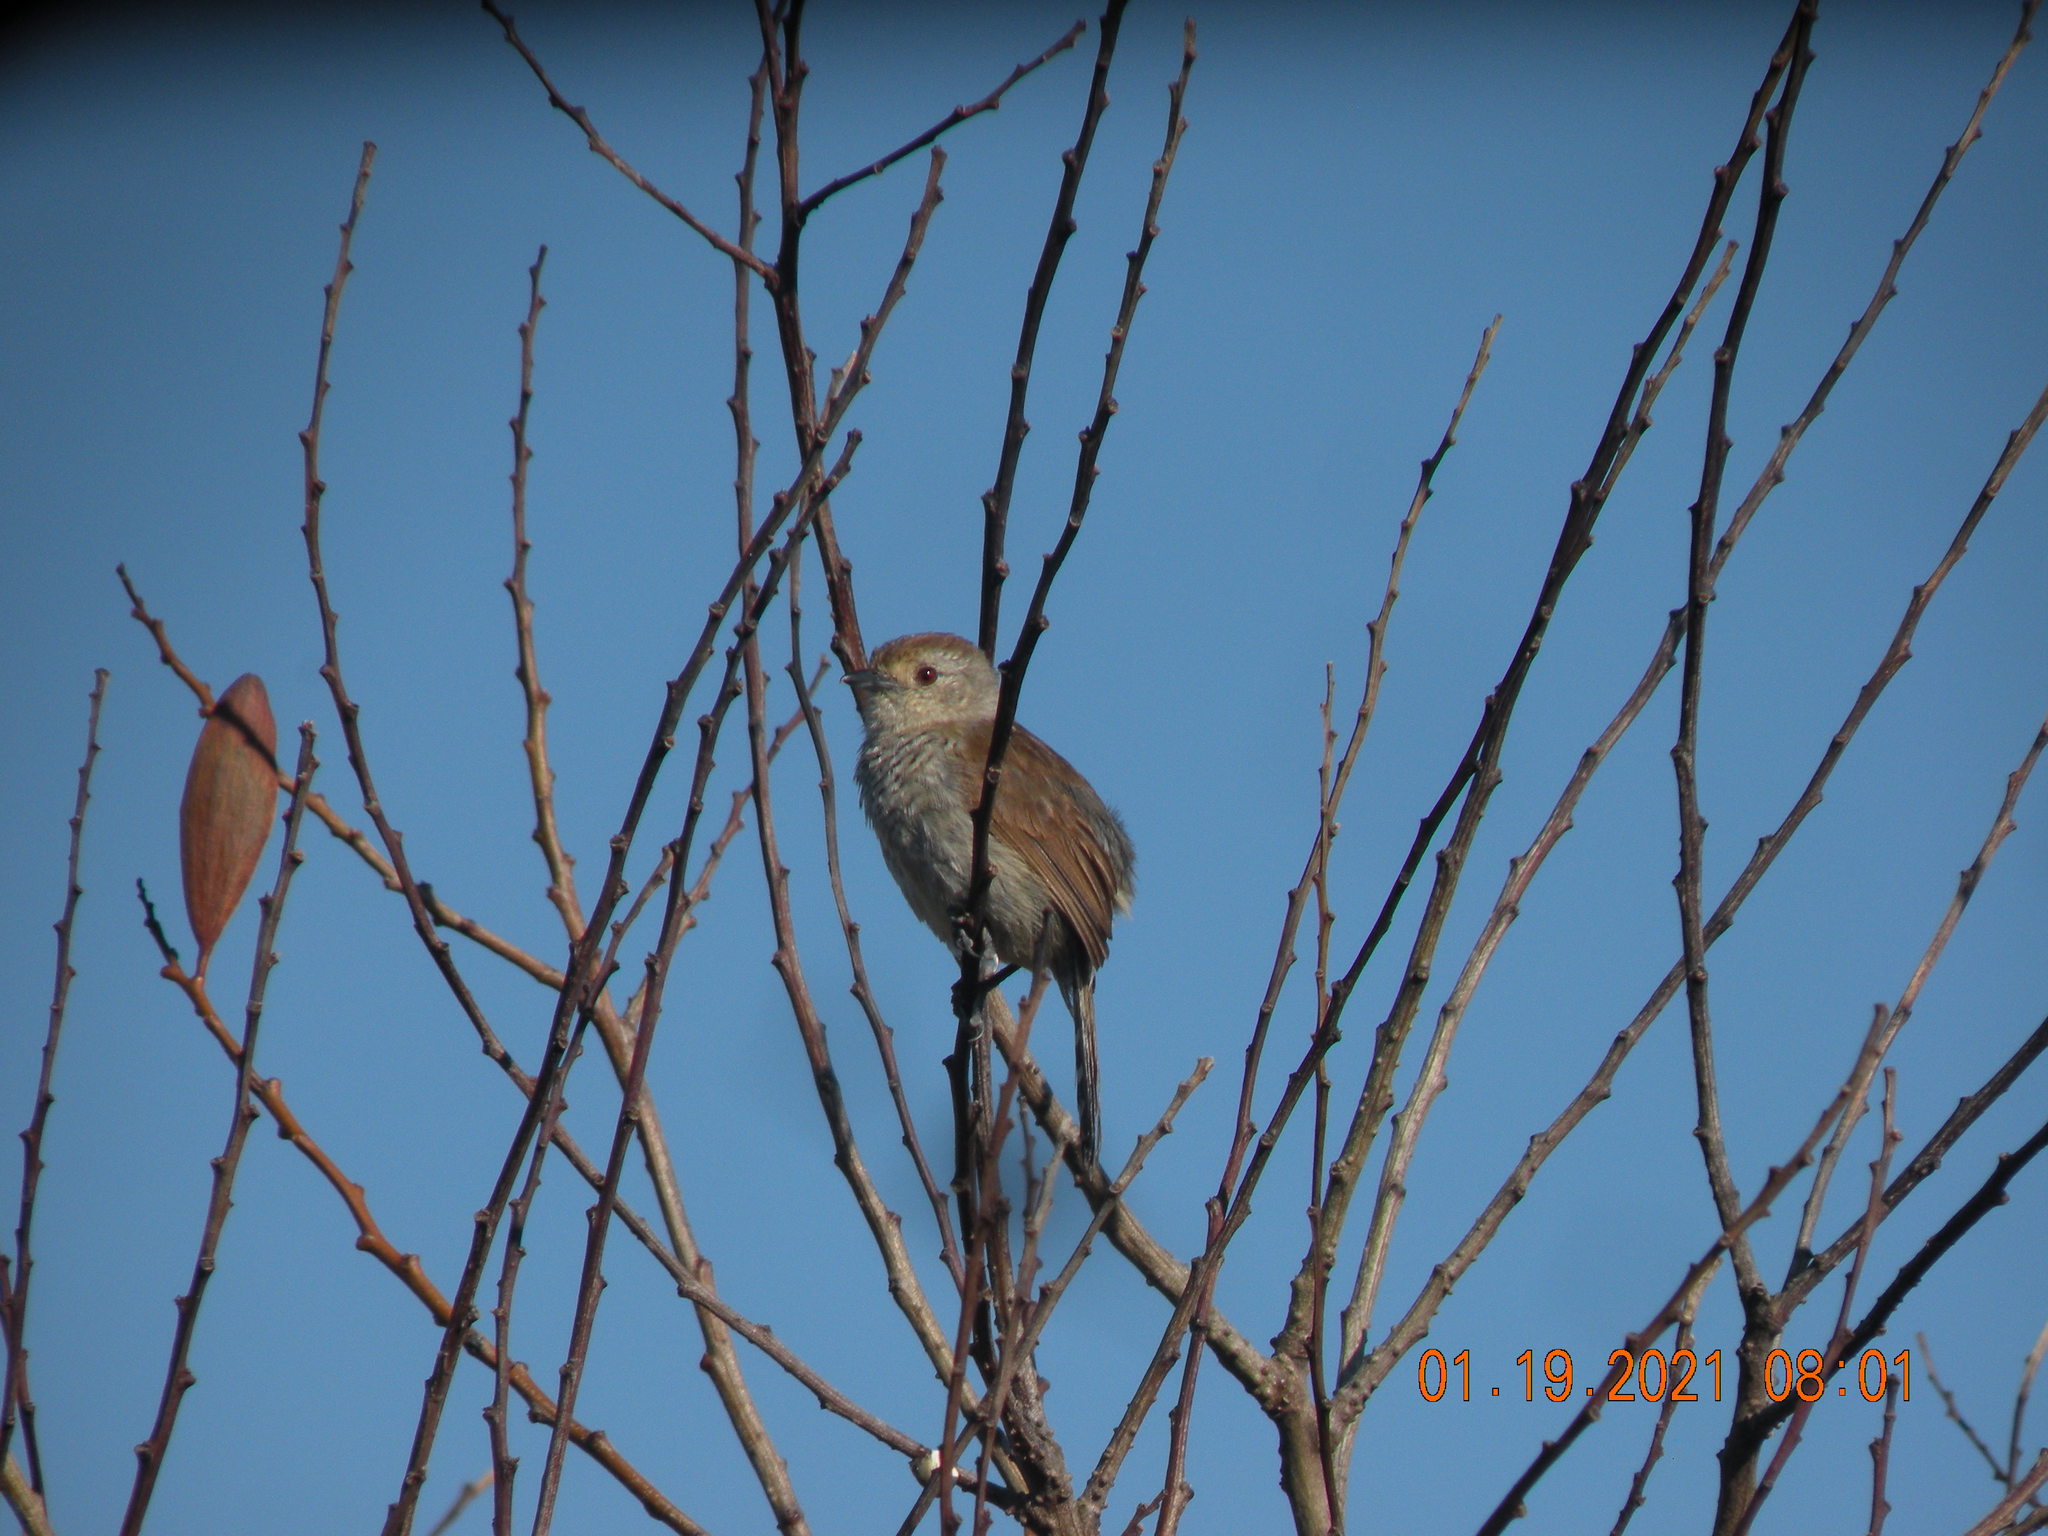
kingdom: Animalia
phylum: Chordata
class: Aves
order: Passeriformes
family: Thamnophilidae
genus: Thamnophilus
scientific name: Thamnophilus ruficapillus
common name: Rufous-capped antshrike
